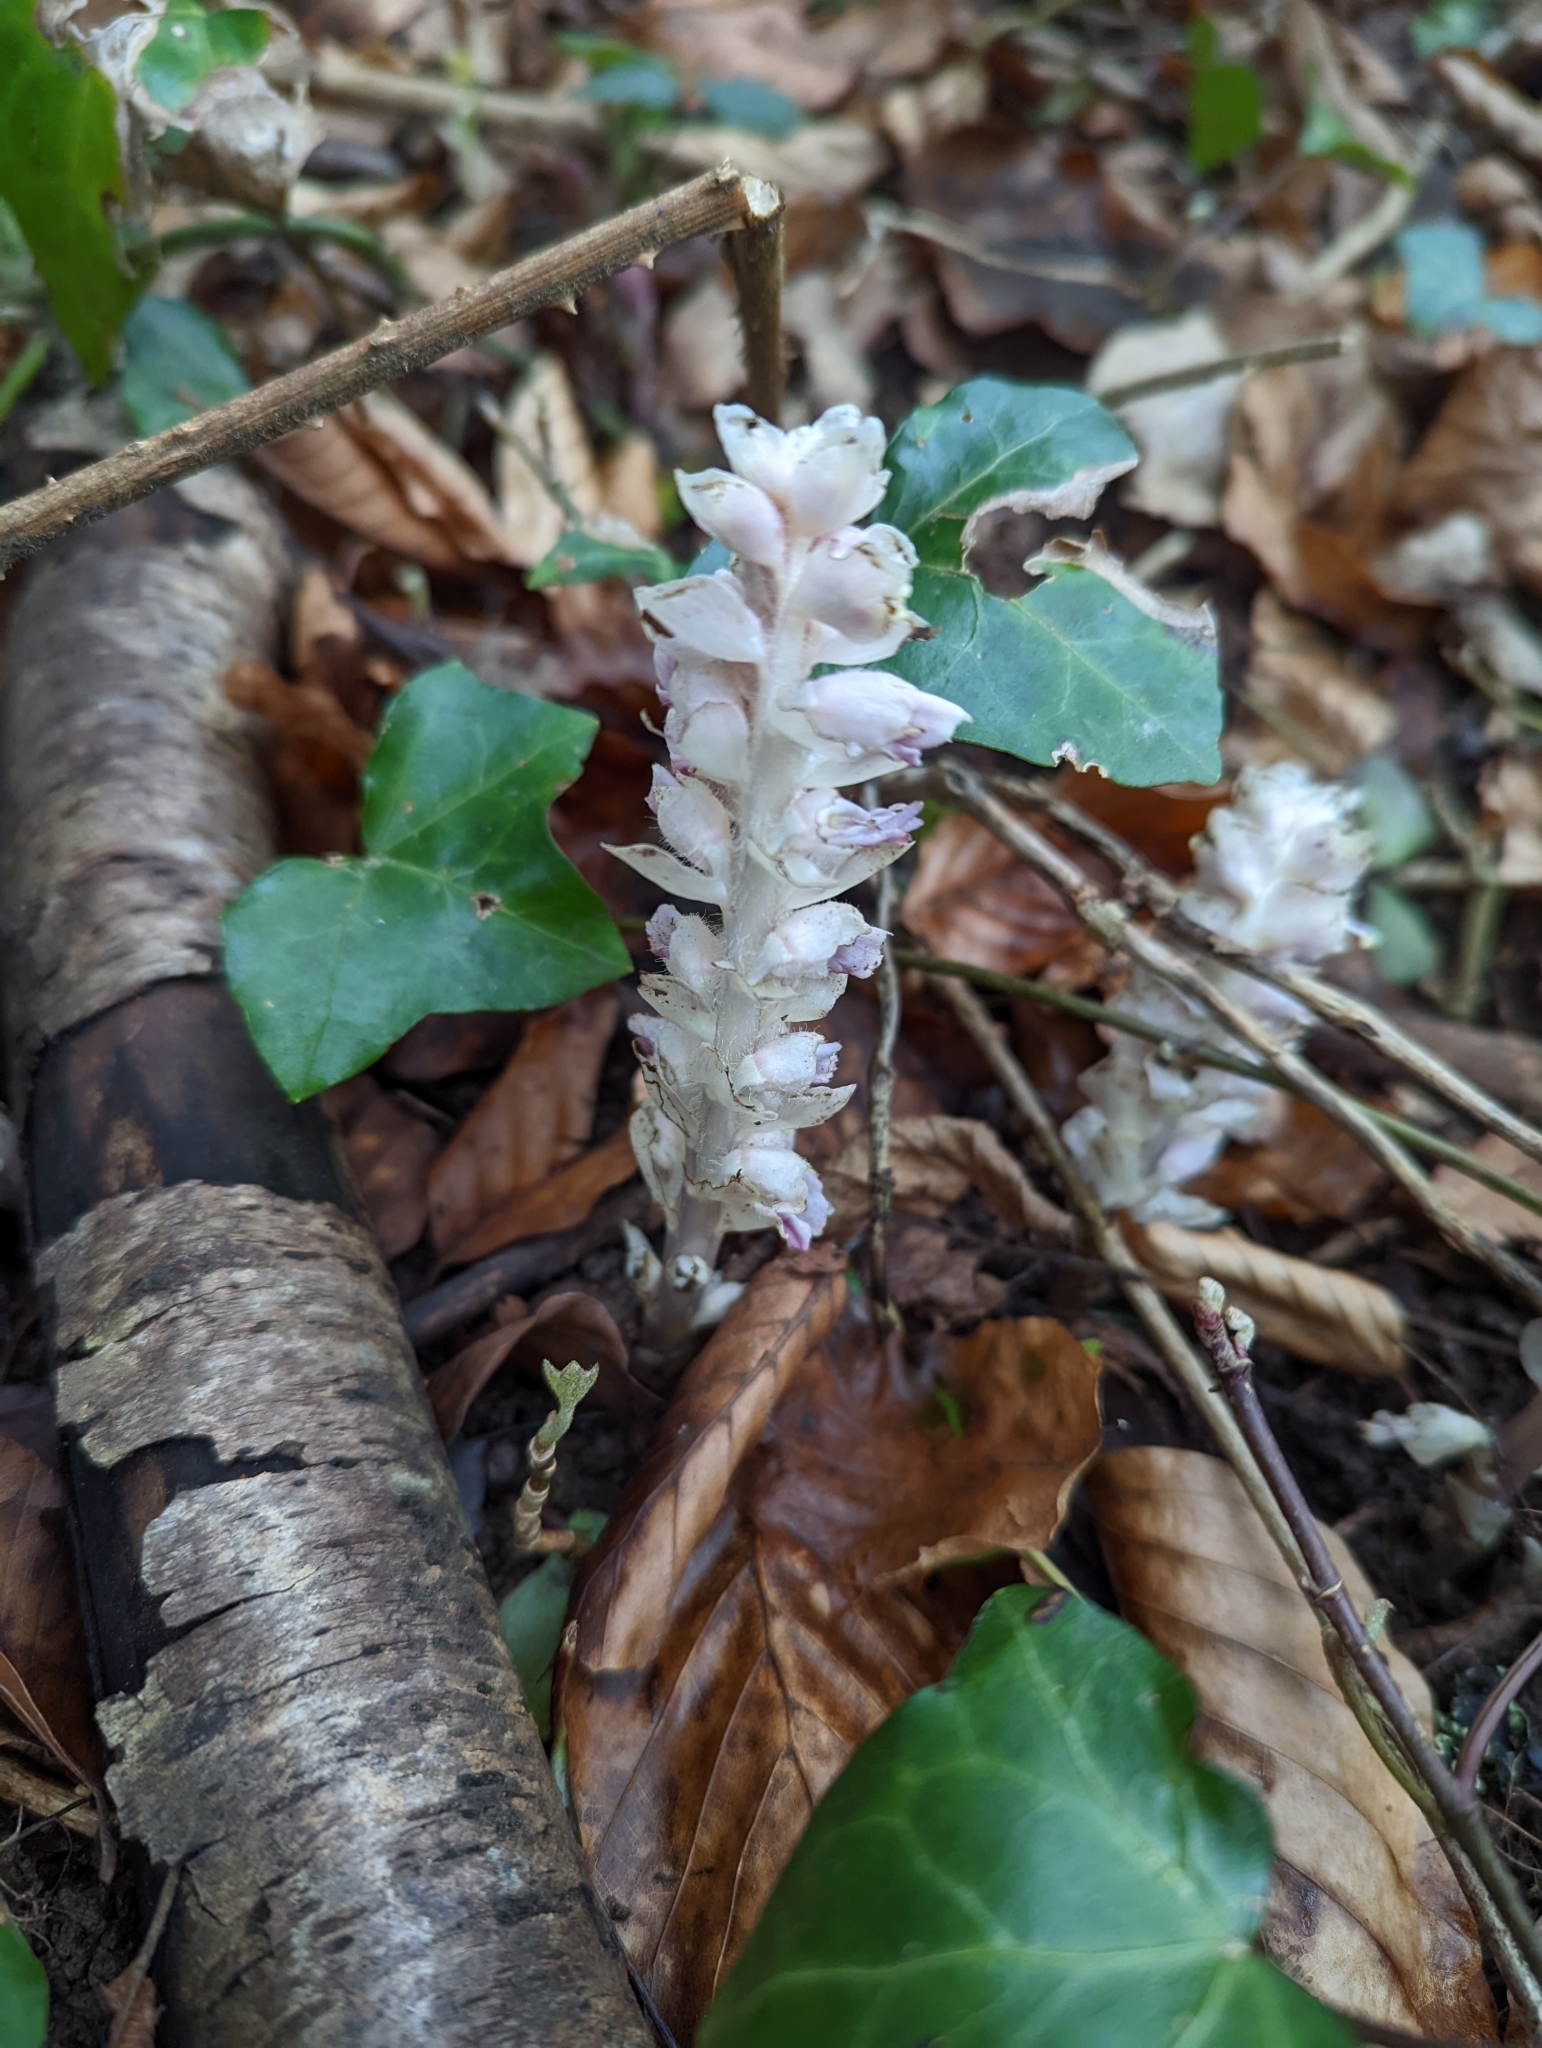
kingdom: Plantae
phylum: Tracheophyta
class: Magnoliopsida
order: Lamiales
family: Orobanchaceae
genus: Lathraea
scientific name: Lathraea squamaria
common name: Toothwort
